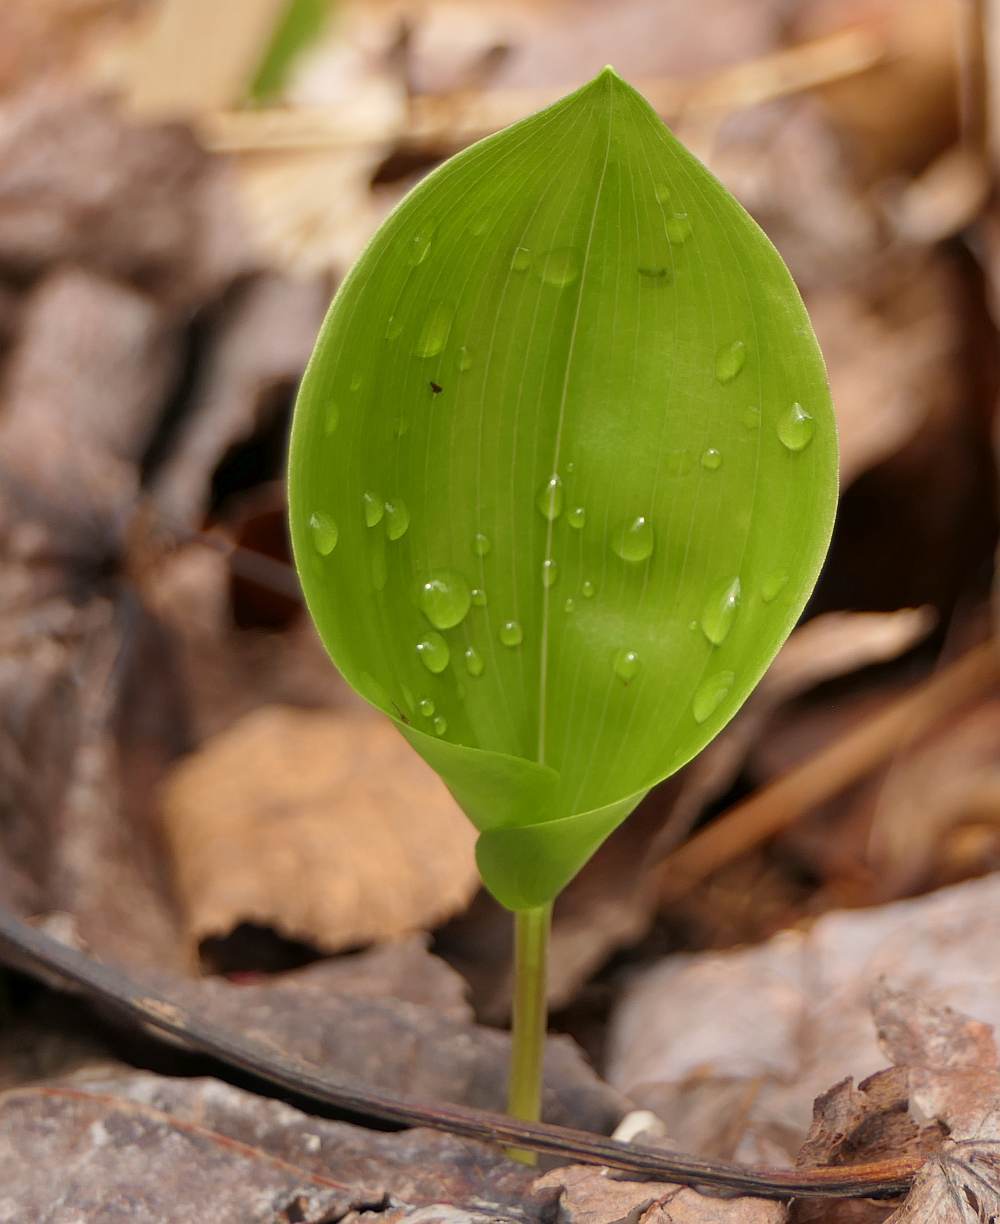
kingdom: Plantae
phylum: Tracheophyta
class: Liliopsida
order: Asparagales
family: Asparagaceae
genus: Maianthemum
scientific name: Maianthemum canadense
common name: False lily-of-the-valley
